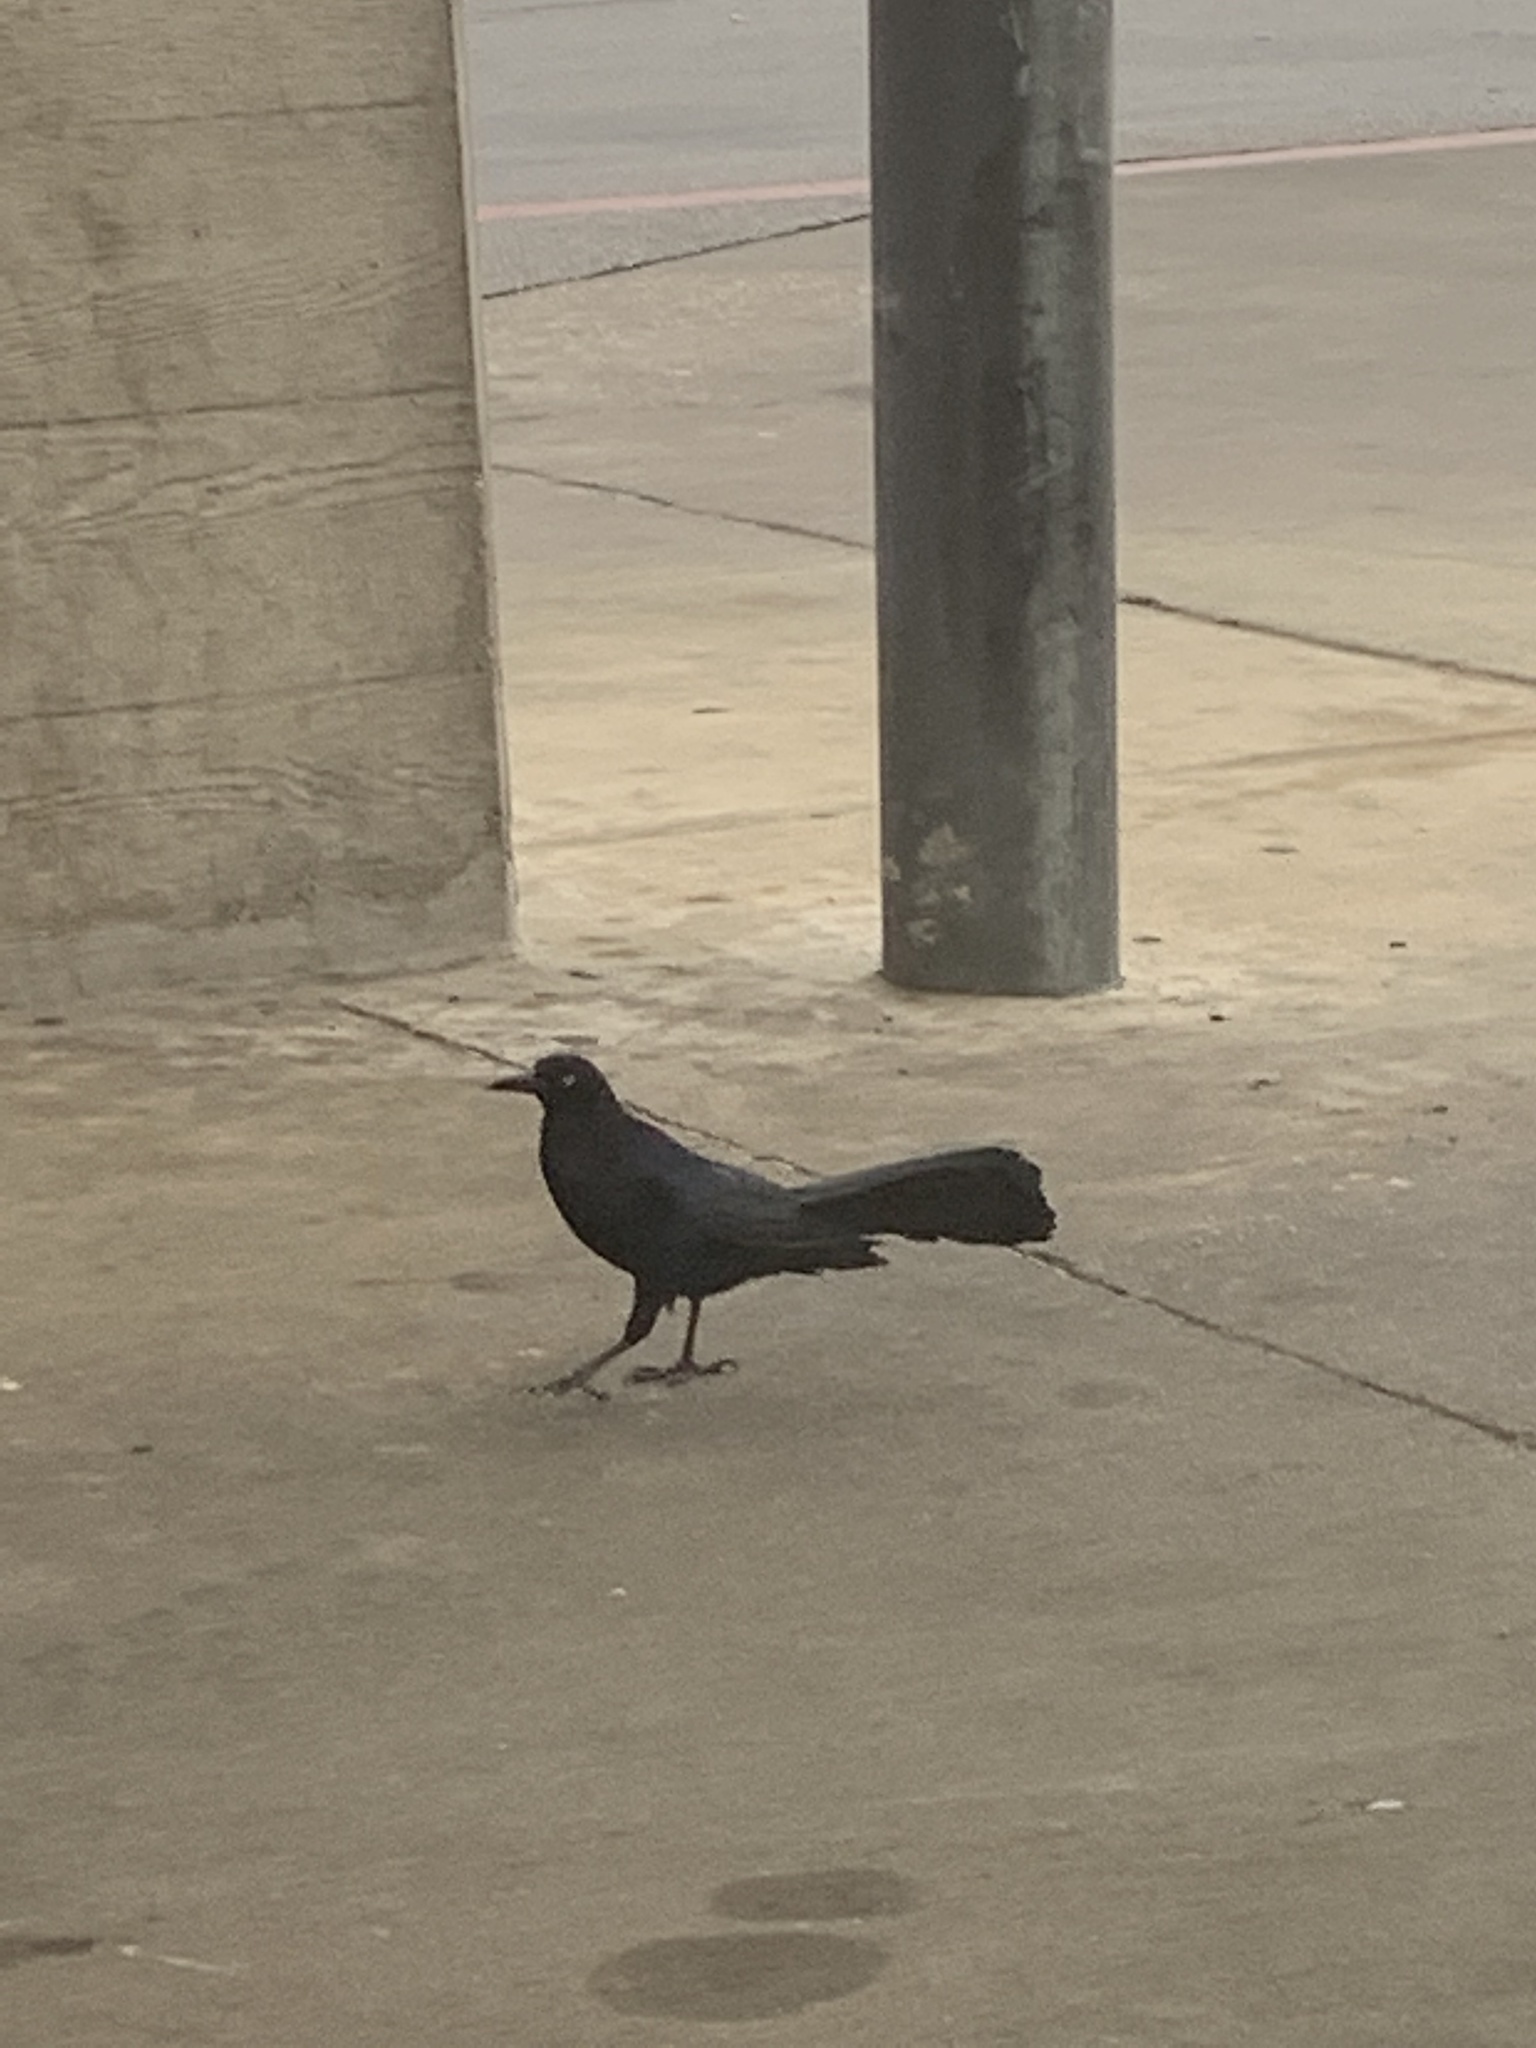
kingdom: Animalia
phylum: Chordata
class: Aves
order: Passeriformes
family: Icteridae
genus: Quiscalus
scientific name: Quiscalus mexicanus
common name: Great-tailed grackle
